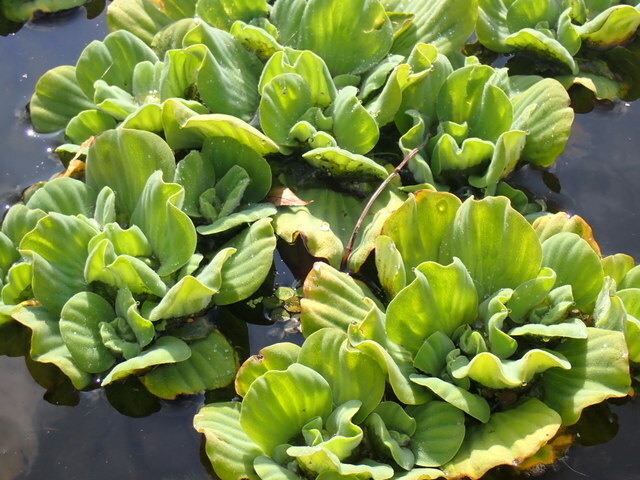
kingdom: Plantae
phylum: Tracheophyta
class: Liliopsida
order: Alismatales
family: Araceae
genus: Pistia
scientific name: Pistia stratiotes
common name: Water lettuce
